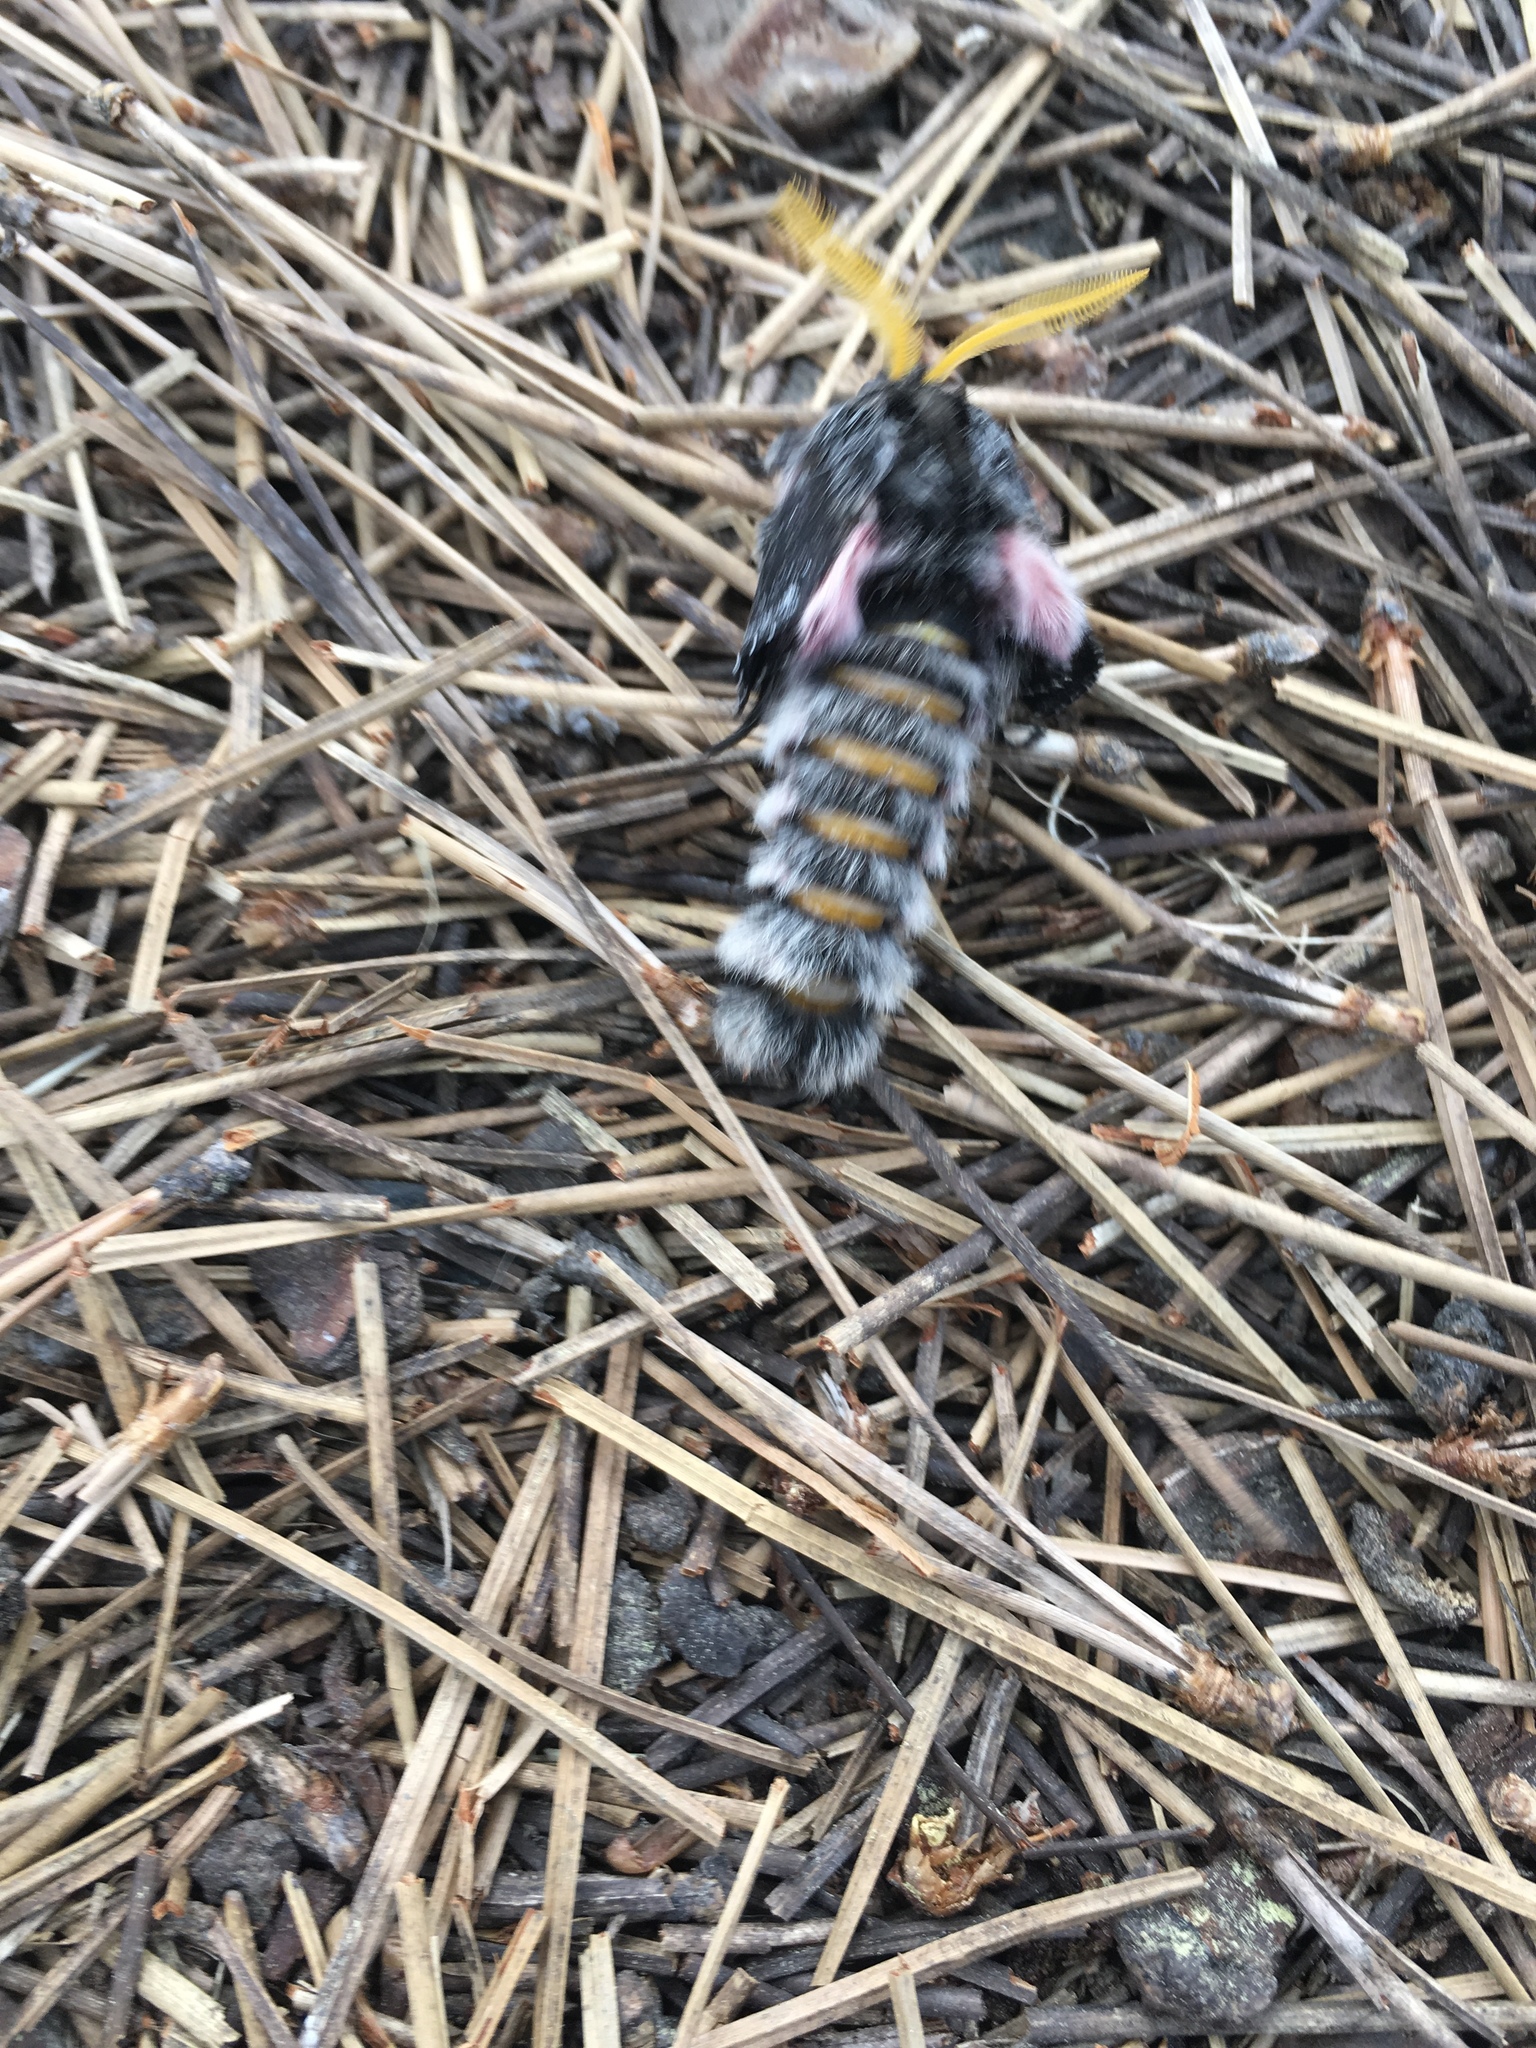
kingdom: Animalia
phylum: Arthropoda
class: Insecta
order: Lepidoptera
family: Saturniidae
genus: Coloradia
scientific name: Coloradia pandora
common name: Pandora pinemoth
